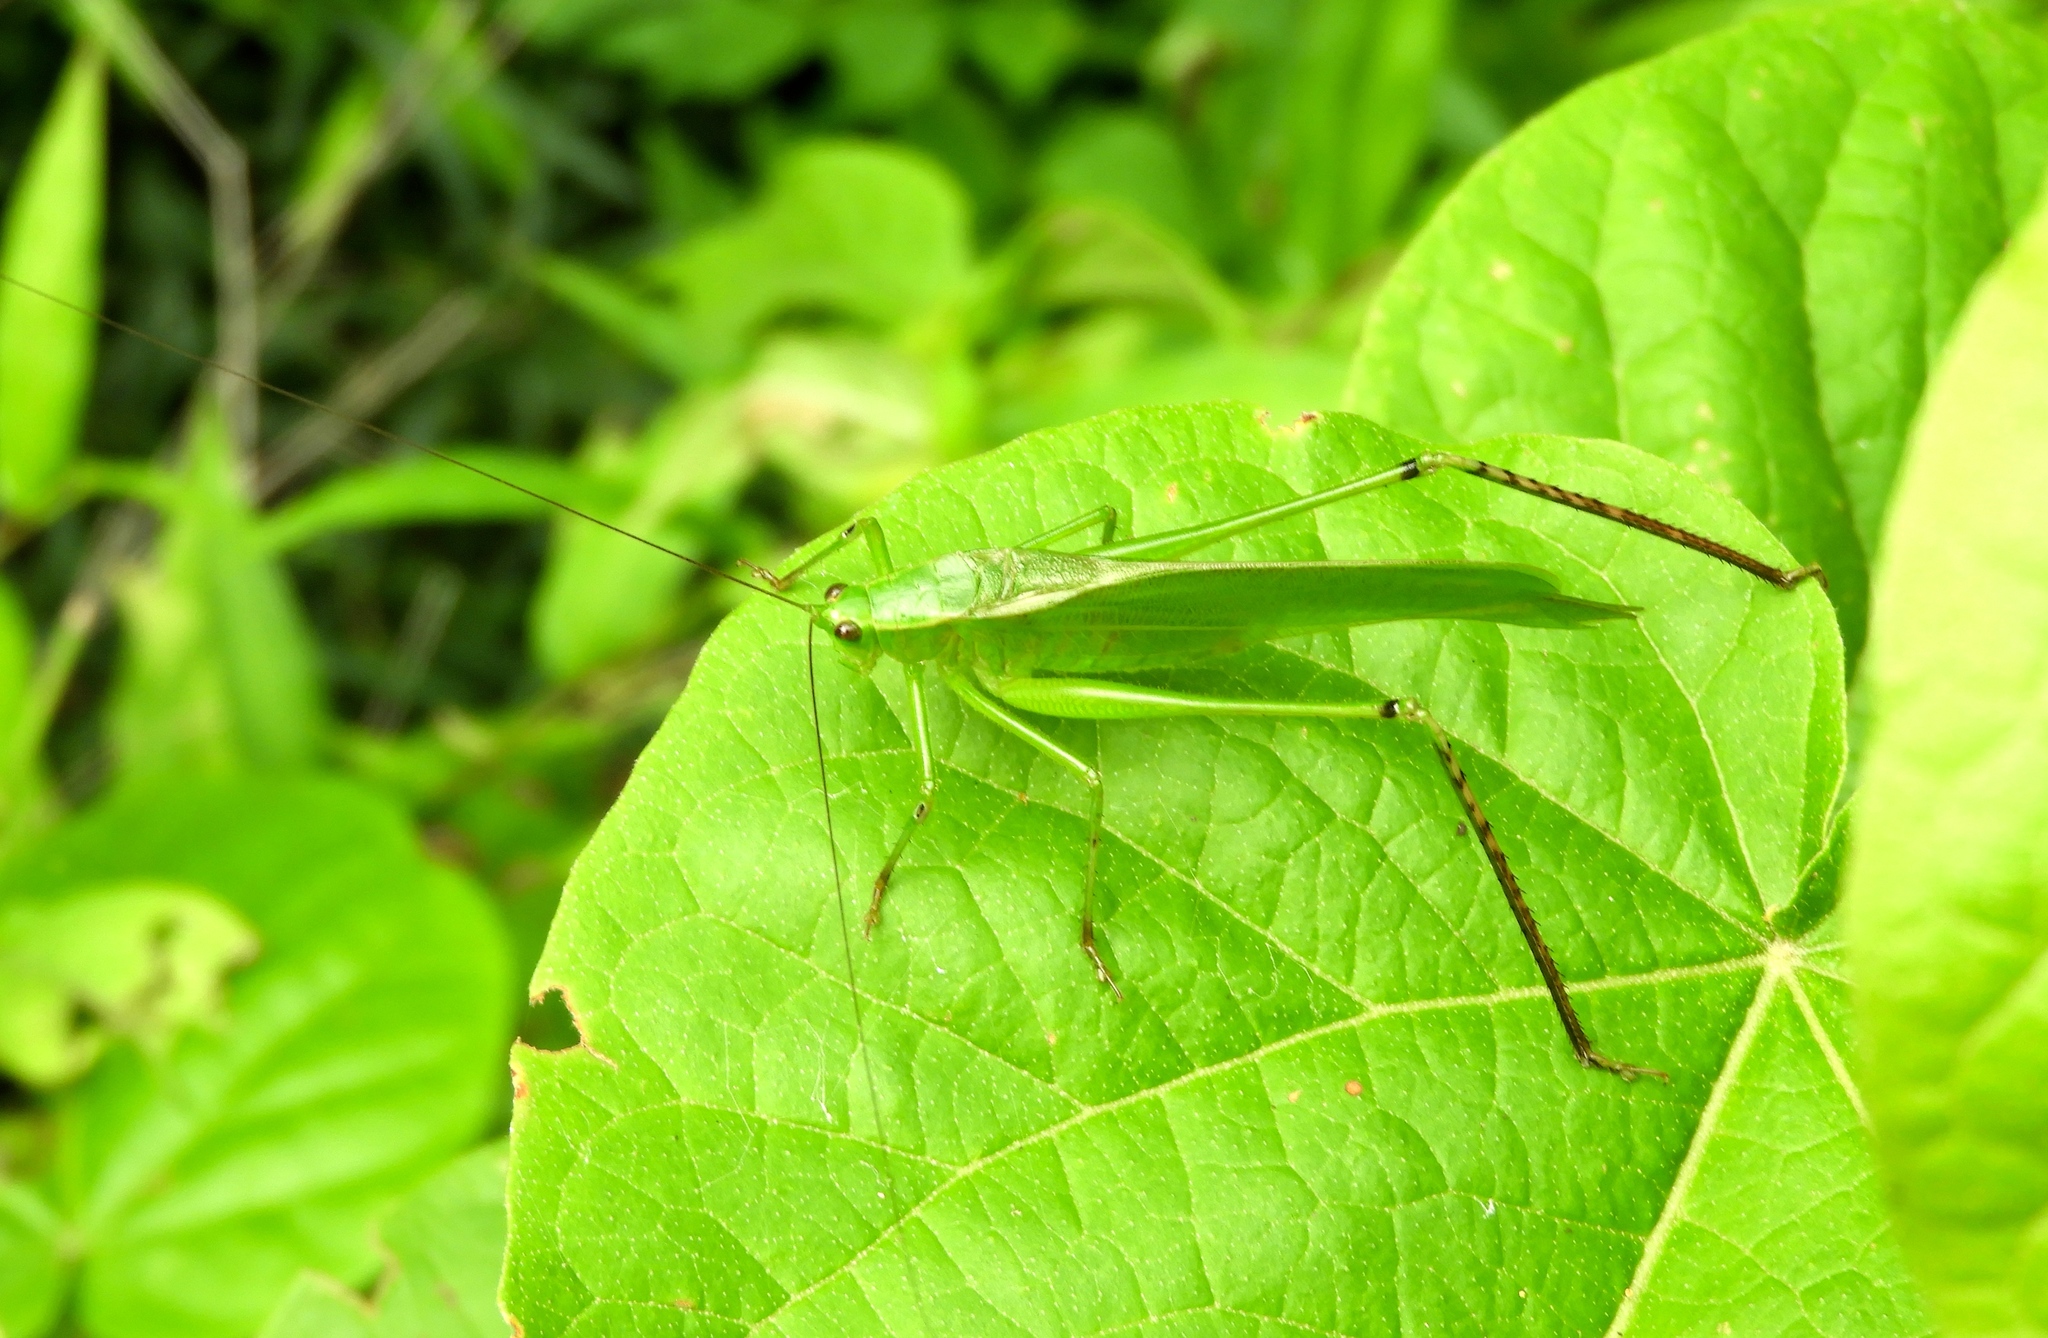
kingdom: Animalia
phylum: Arthropoda
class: Insecta
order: Orthoptera
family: Tettigoniidae
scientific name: Tettigoniidae
